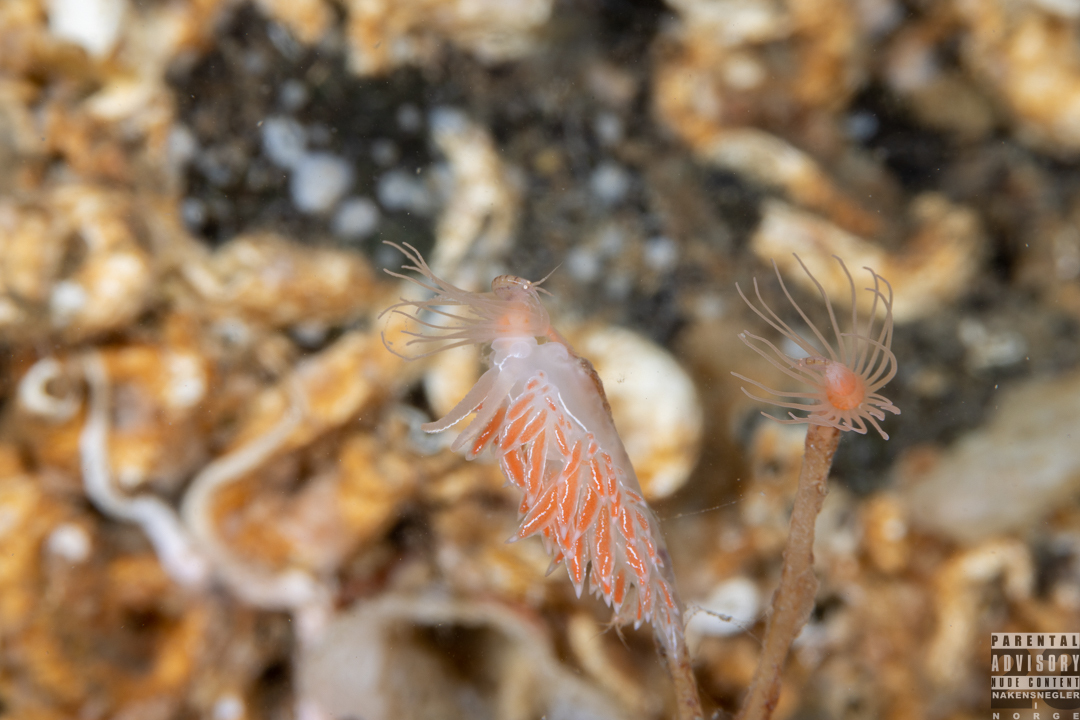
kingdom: Animalia
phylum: Mollusca
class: Gastropoda
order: Nudibranchia
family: Coryphellidae
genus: Coryphella
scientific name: Coryphella chriskaugei
